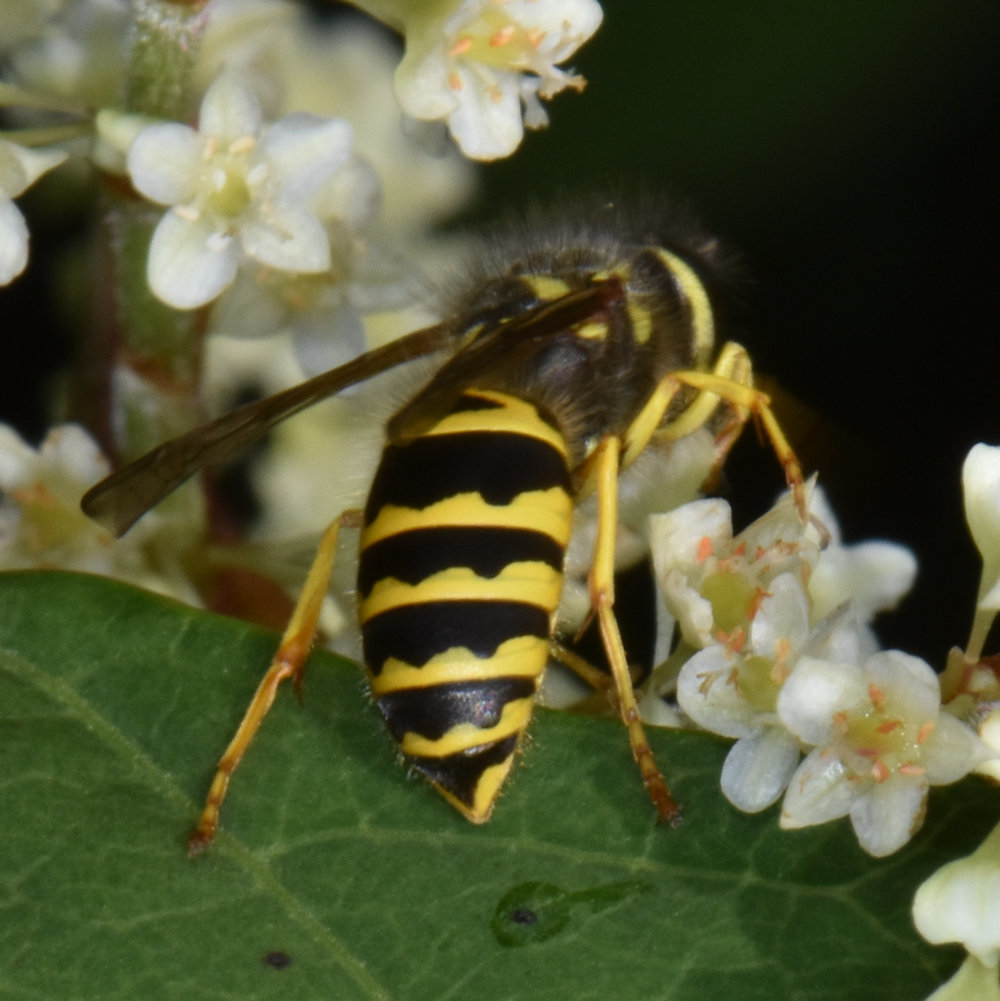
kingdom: Animalia
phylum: Arthropoda
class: Insecta
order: Hymenoptera
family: Vespidae
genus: Vespula
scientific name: Vespula maculifrons
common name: Eastern yellowjacket
